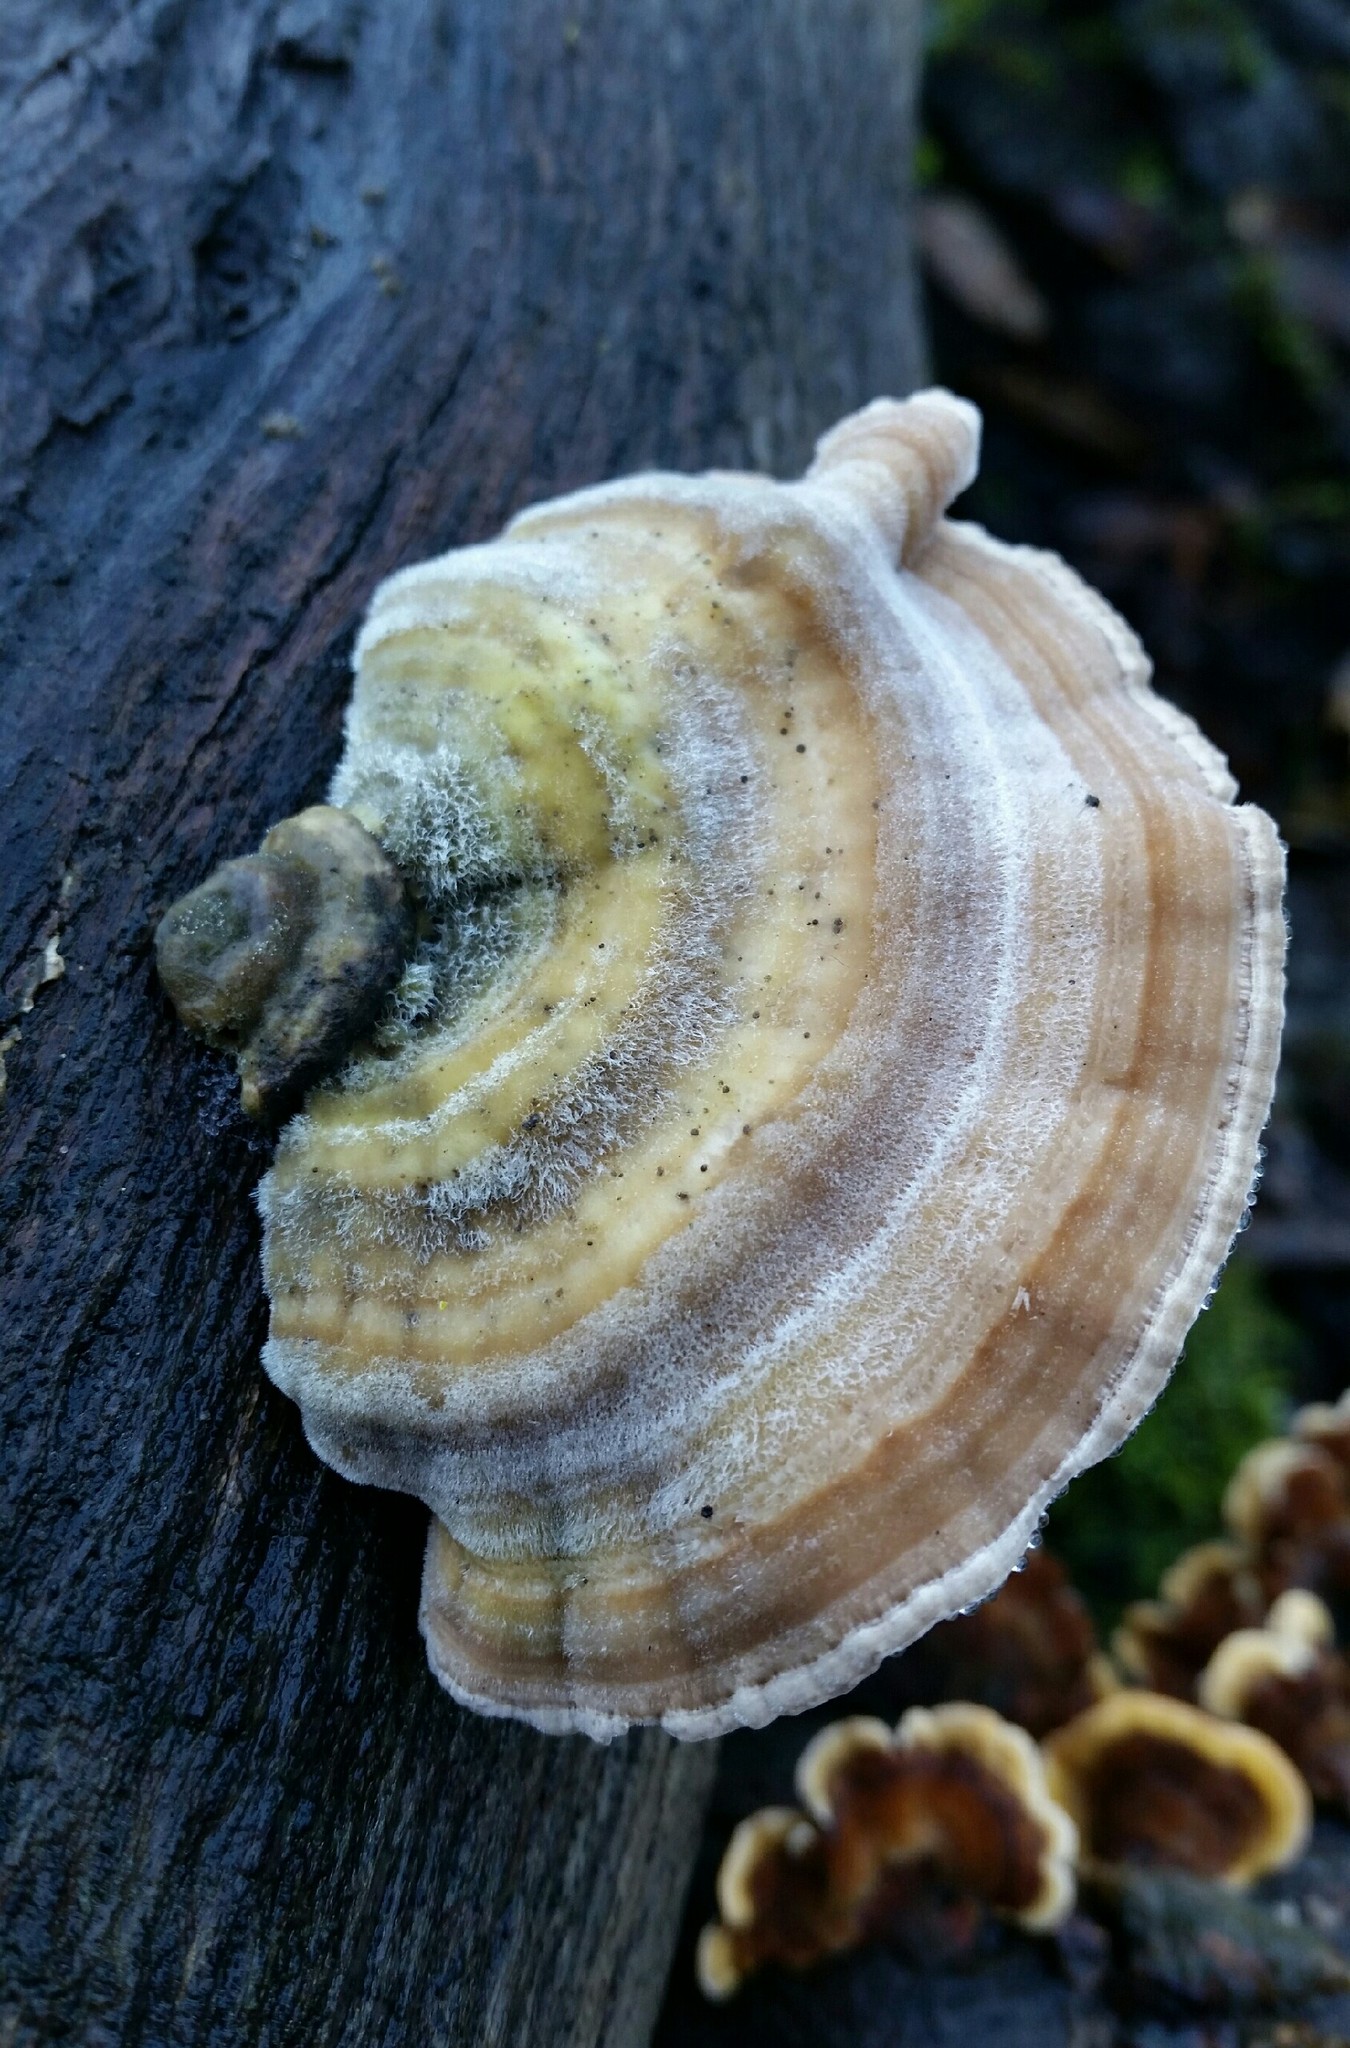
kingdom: Fungi
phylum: Basidiomycota
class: Agaricomycetes
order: Polyporales
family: Polyporaceae
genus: Lenzites
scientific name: Lenzites betulinus
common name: Birch mazegill
